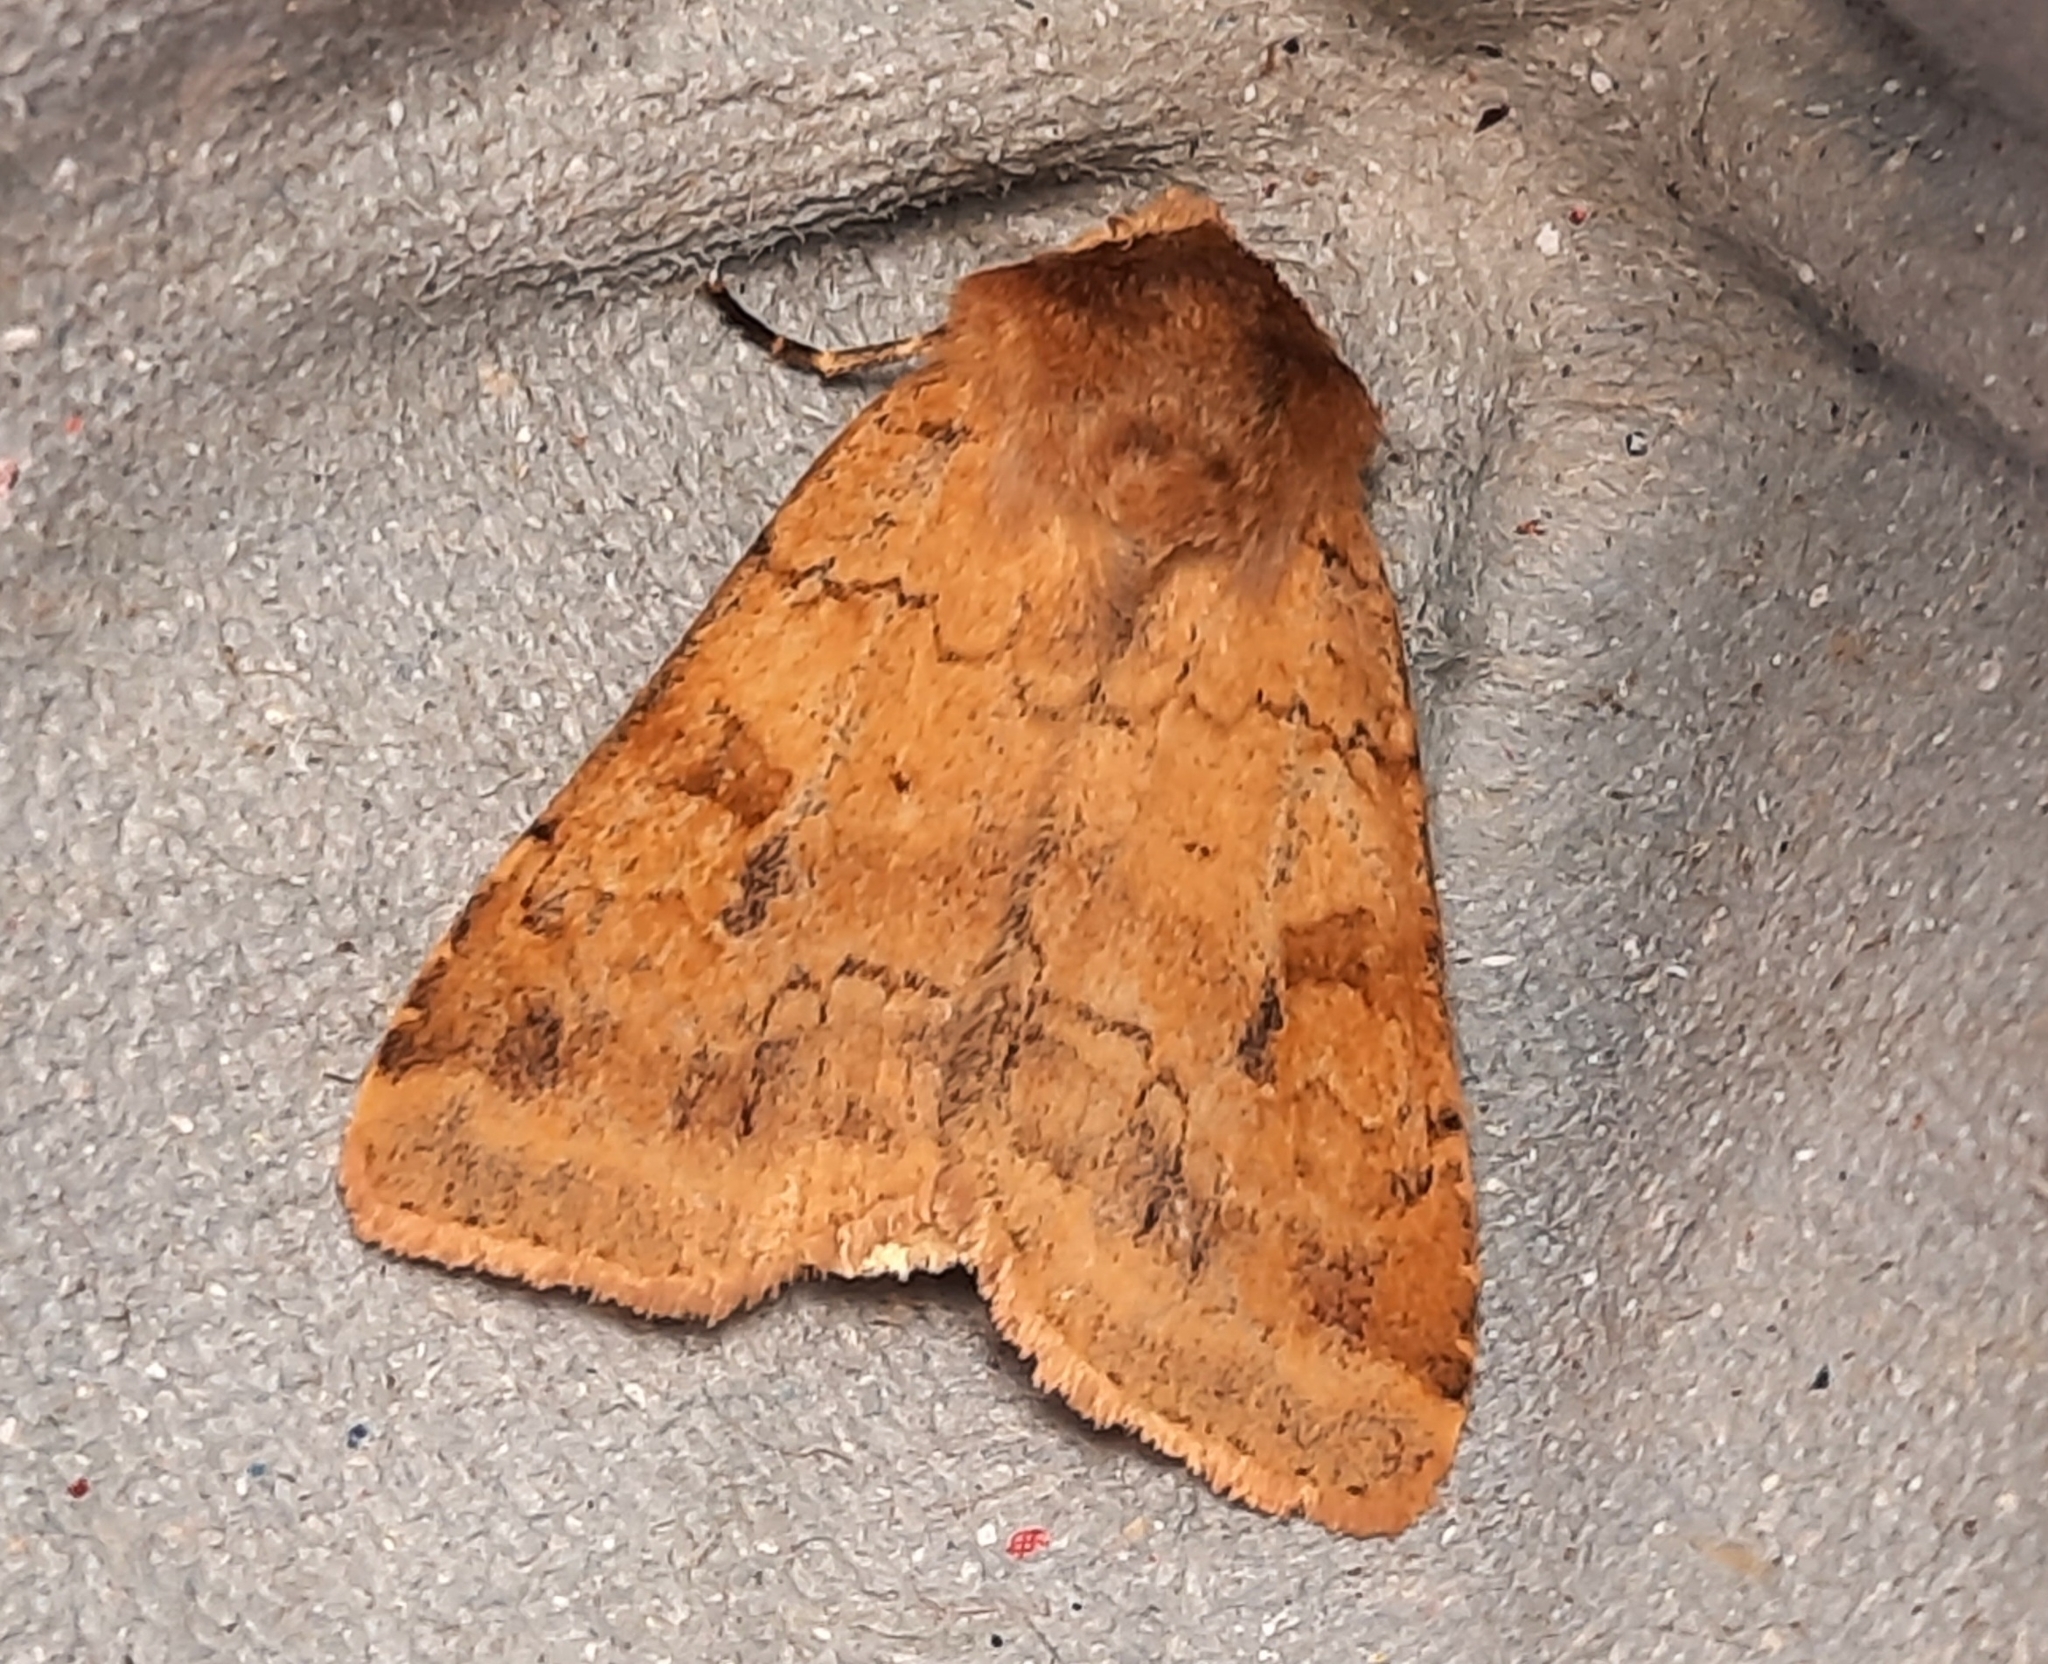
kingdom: Animalia
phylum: Arthropoda
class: Insecta
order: Lepidoptera
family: Noctuidae
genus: Diarsia
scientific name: Diarsia mendica
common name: Ingrailed clay
